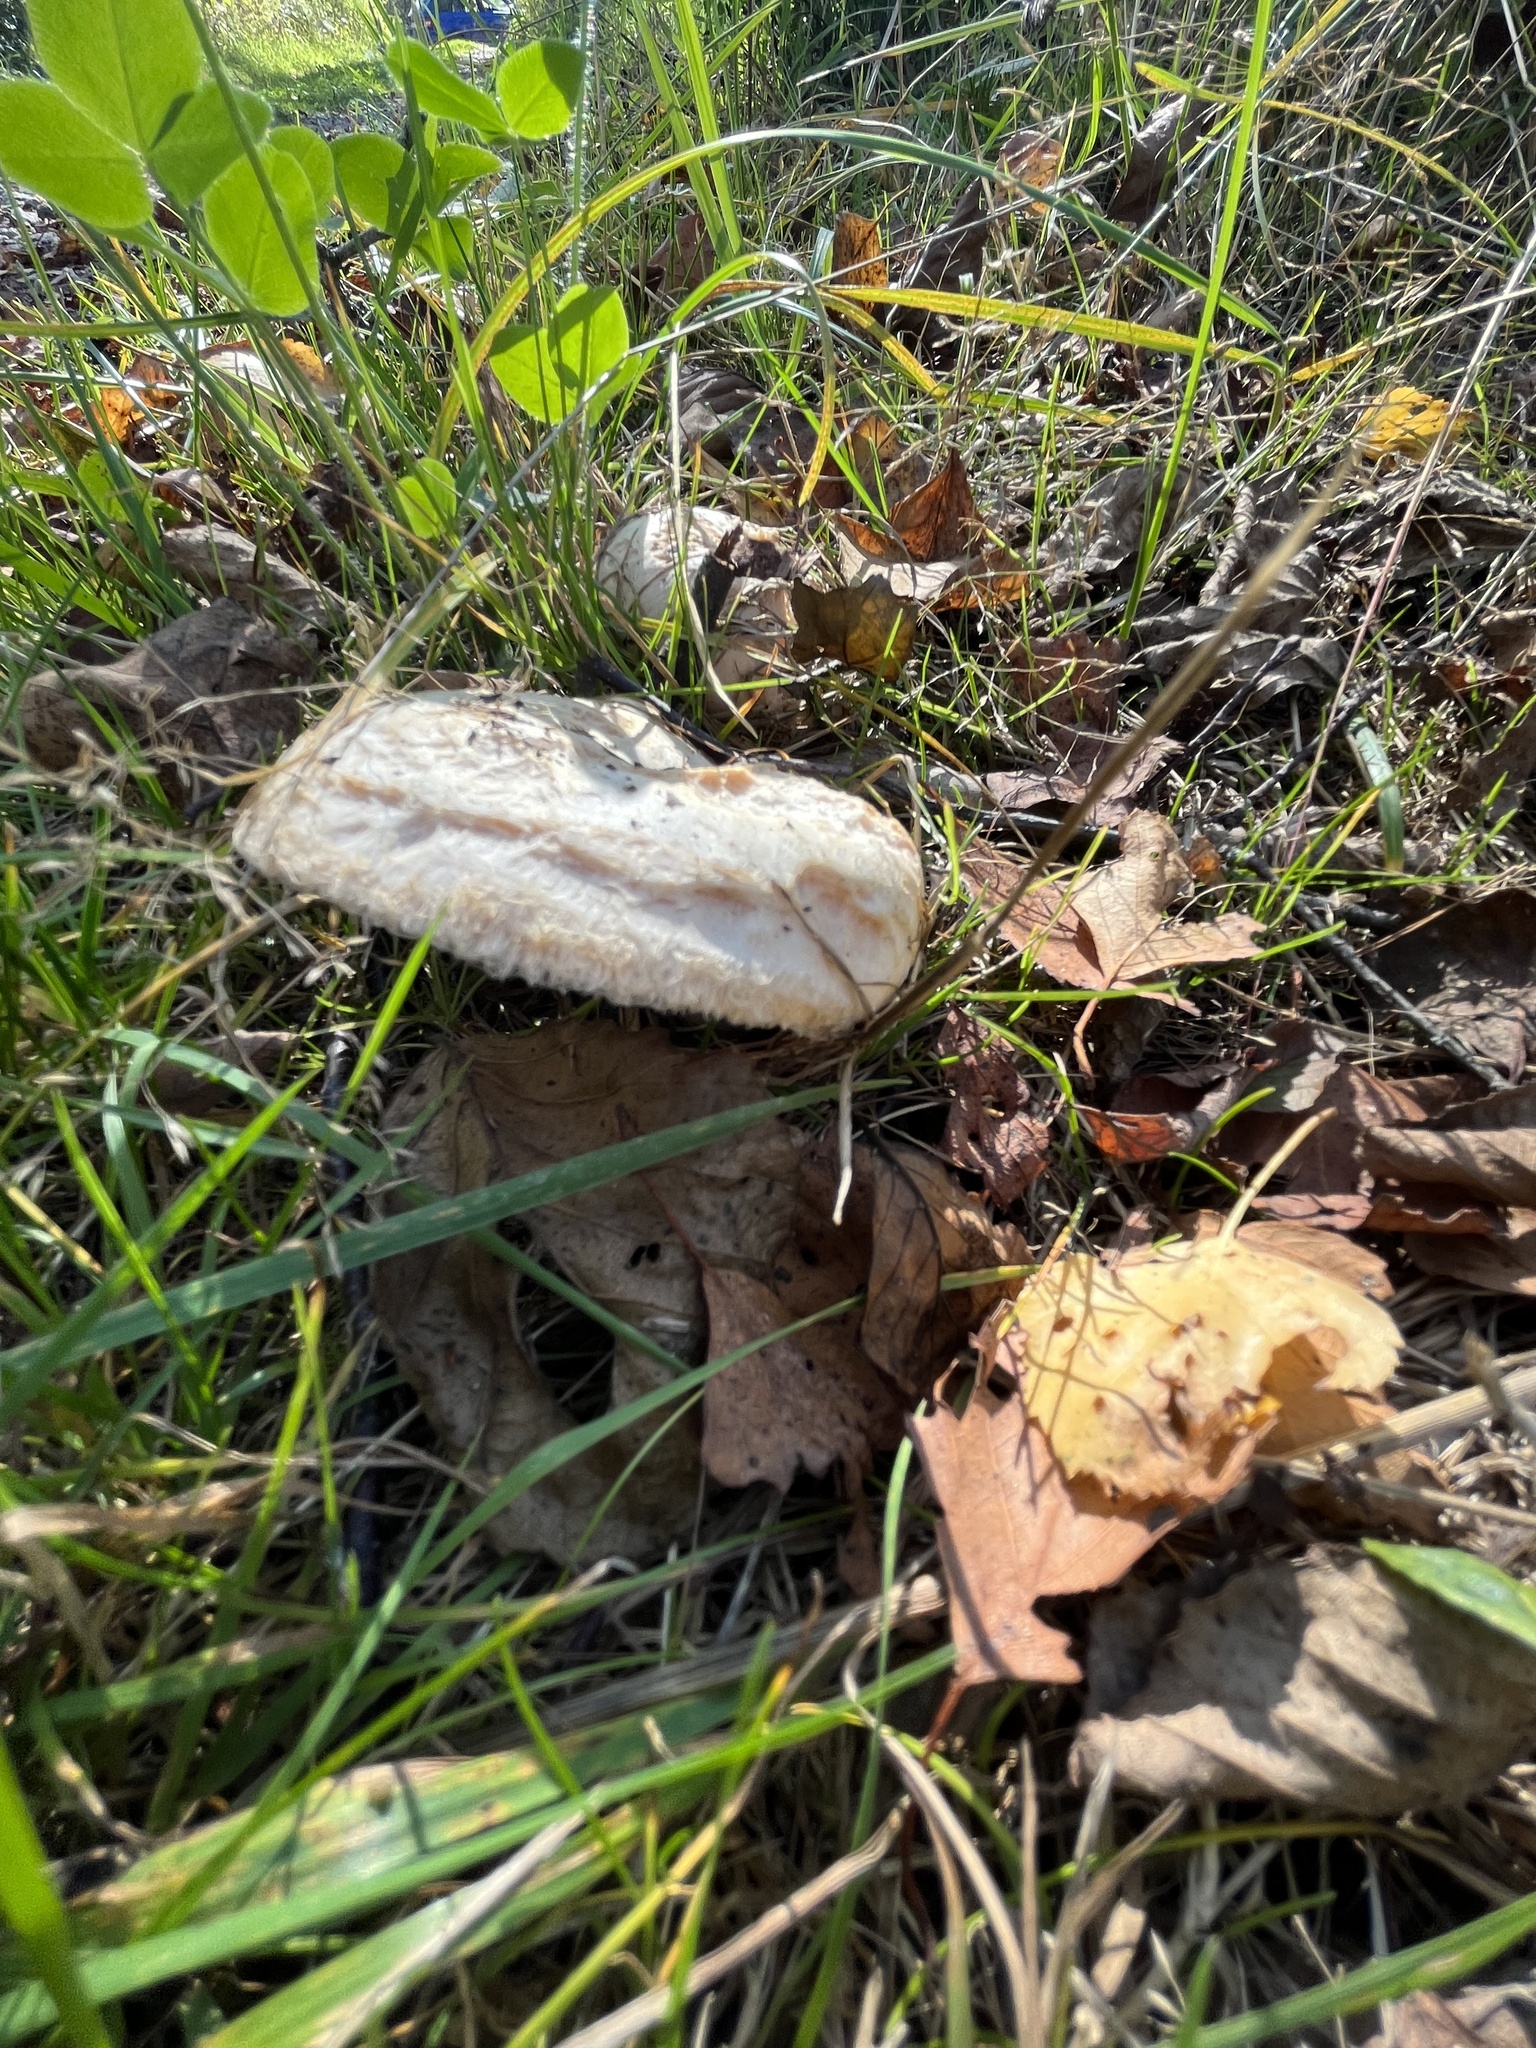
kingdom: Fungi
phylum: Basidiomycota
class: Agaricomycetes
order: Russulales
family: Russulaceae
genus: Lactarius
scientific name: Lactarius pubescens
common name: Bearded milkcap
